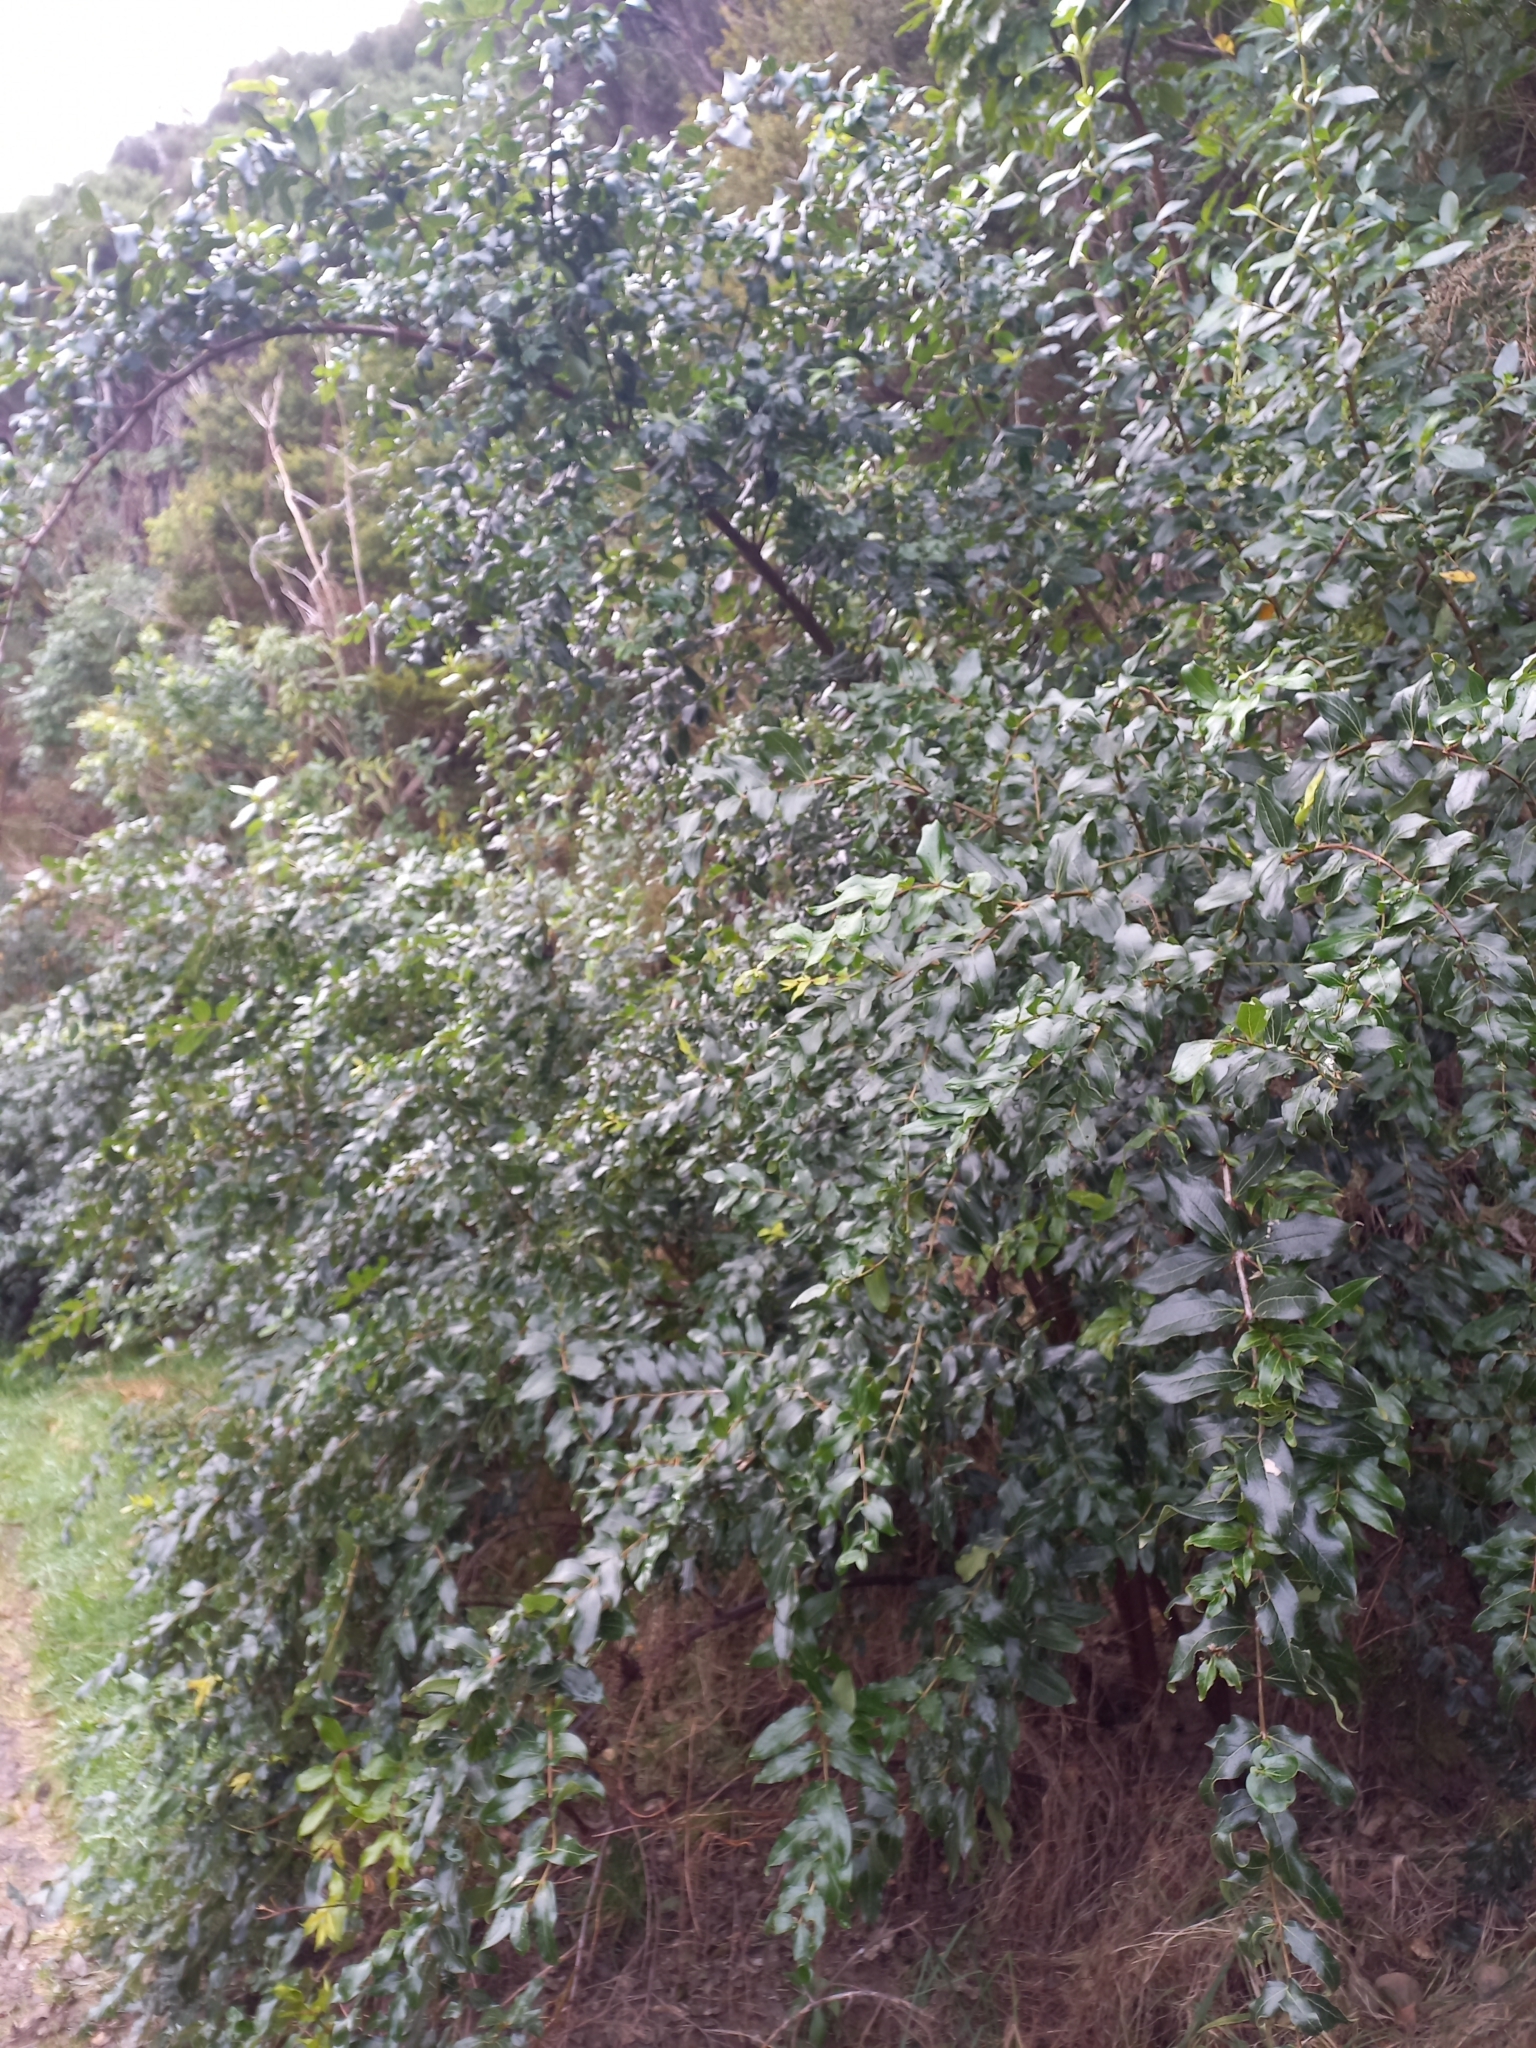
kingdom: Plantae
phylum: Tracheophyta
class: Magnoliopsida
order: Cucurbitales
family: Coriariaceae
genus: Coriaria
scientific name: Coriaria arborea
